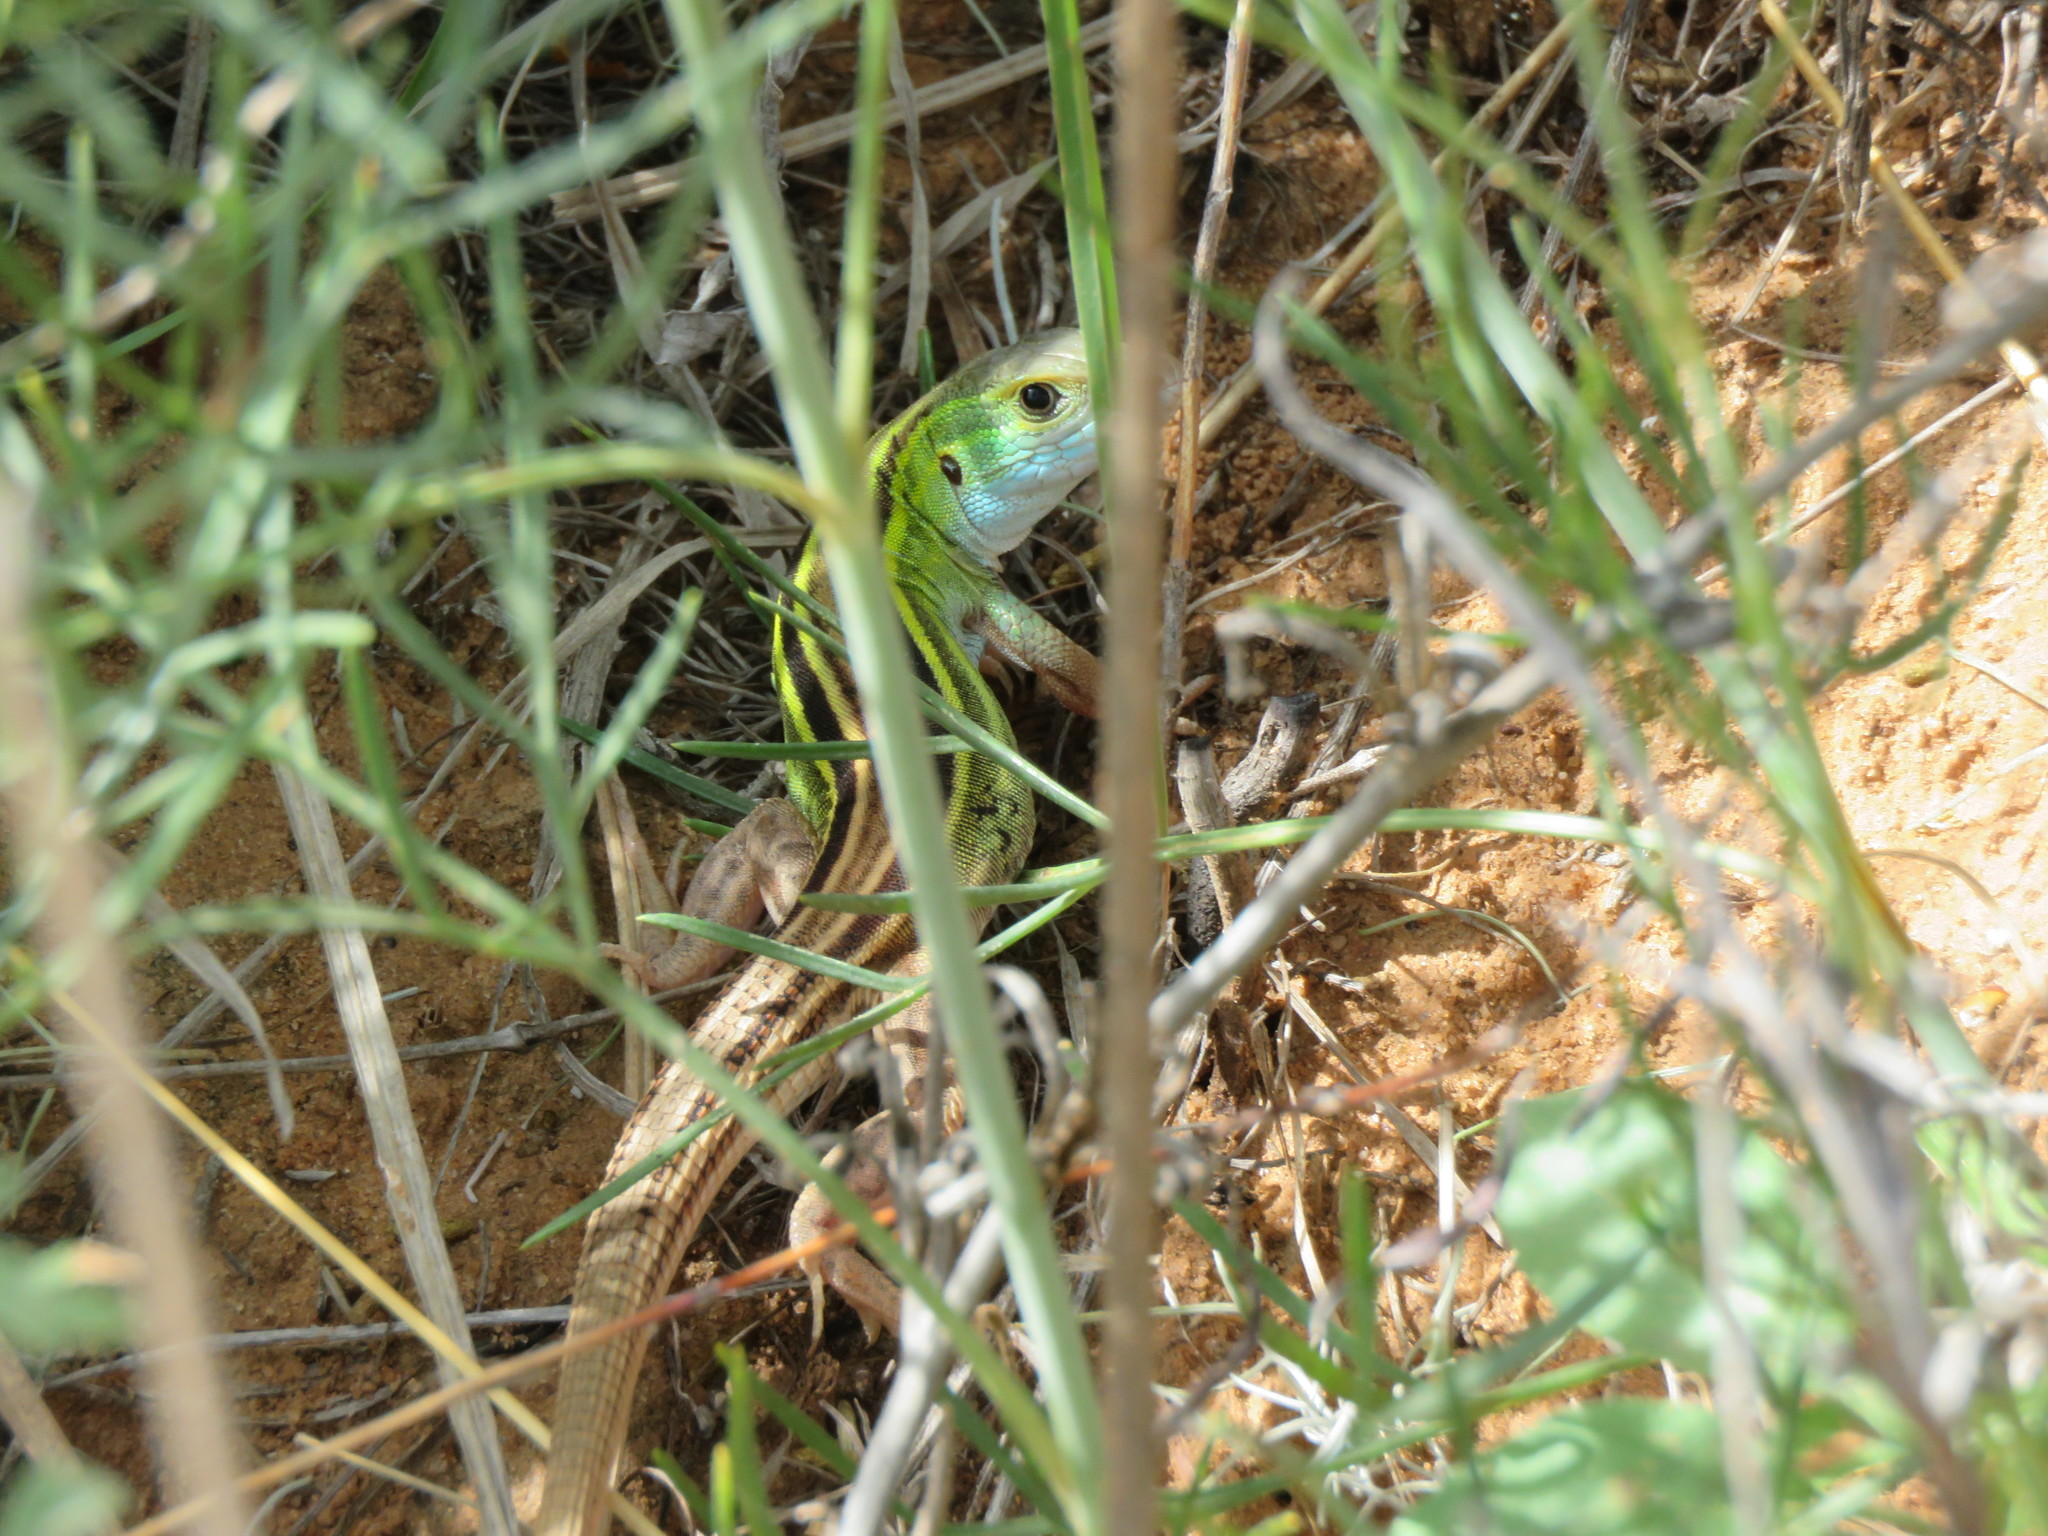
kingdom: Animalia
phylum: Chordata
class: Squamata
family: Teiidae
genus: Aspidoscelis
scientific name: Aspidoscelis sexlineatus
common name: Six-lined racerunner
